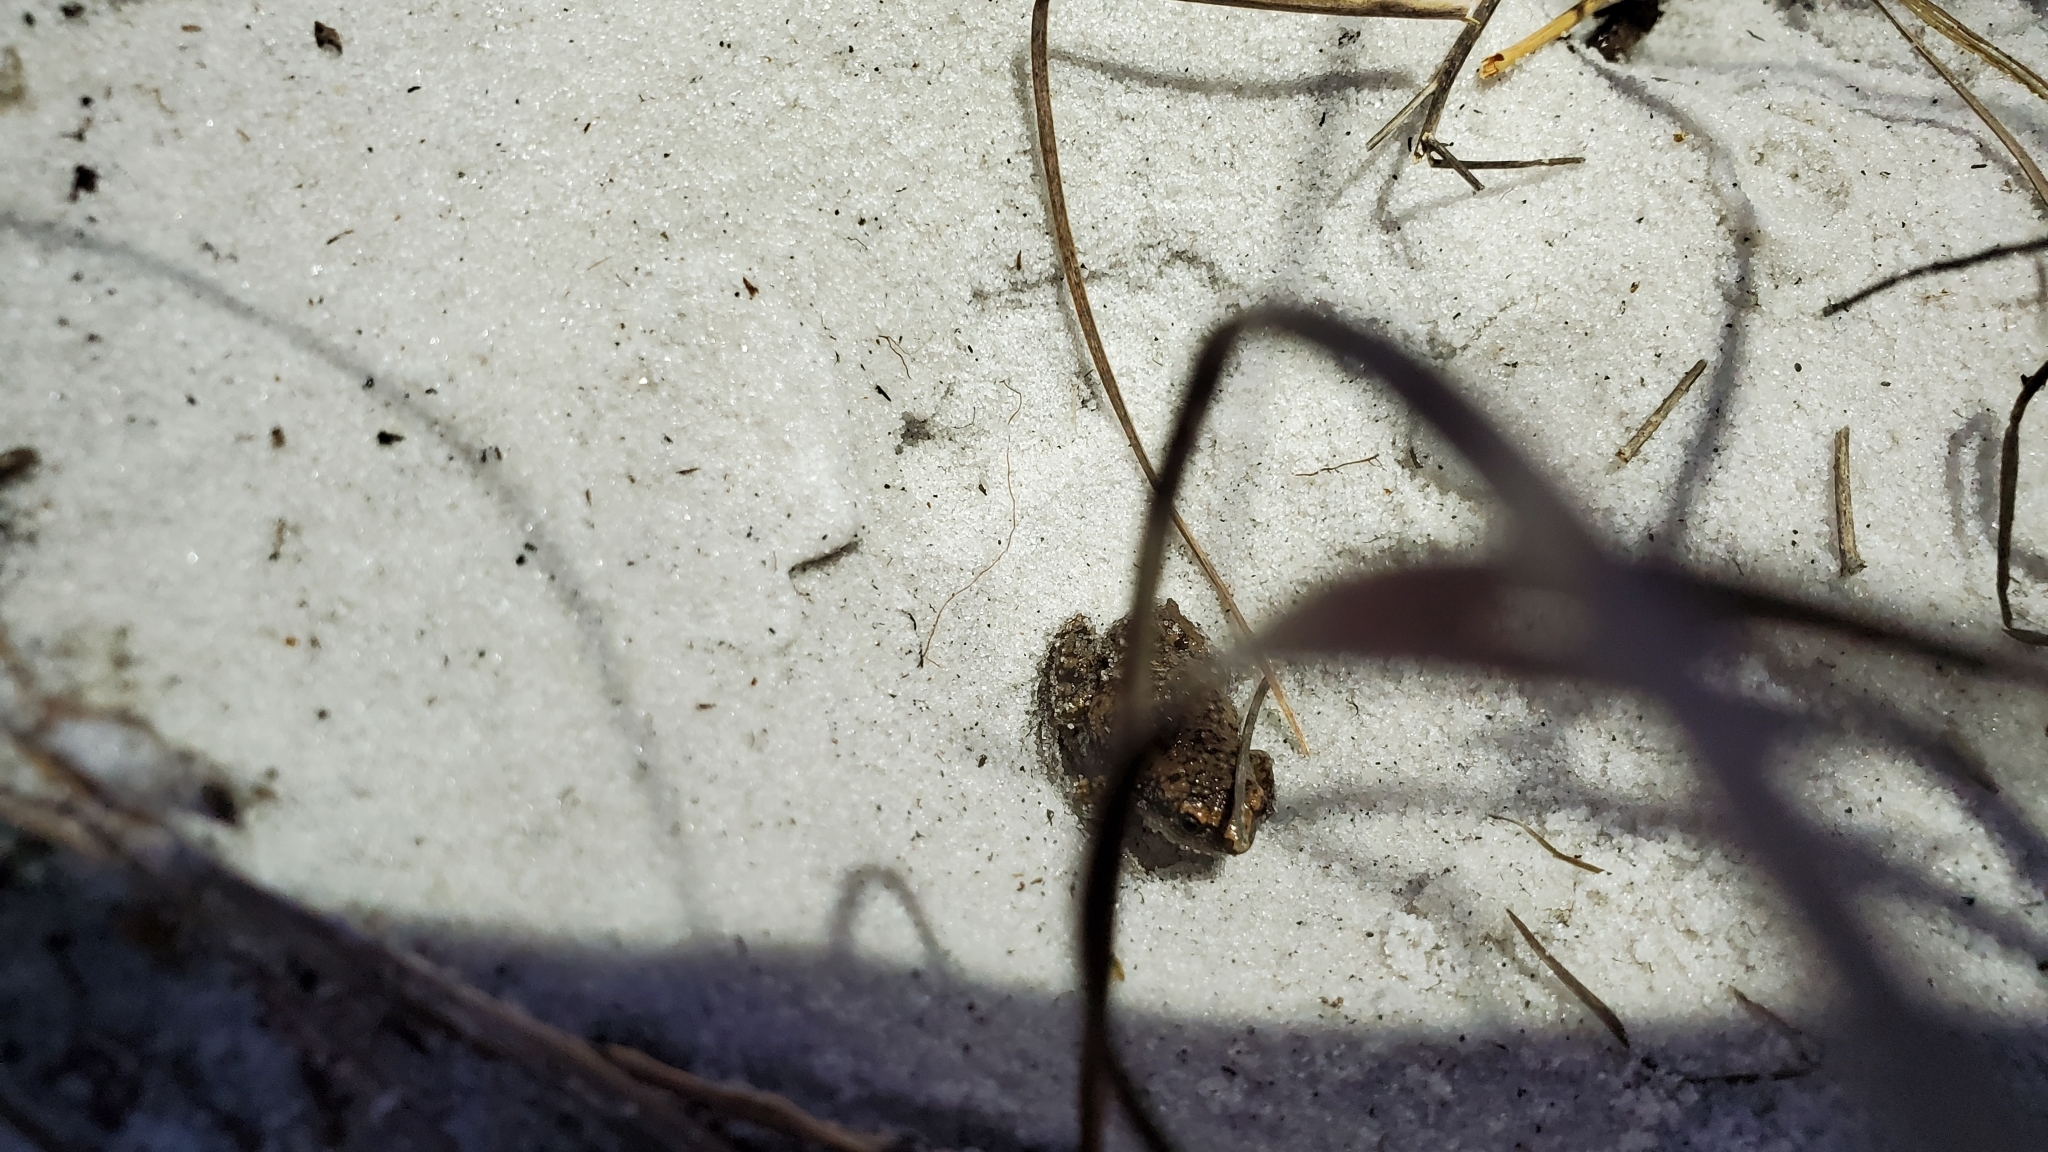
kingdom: Animalia
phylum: Chordata
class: Amphibia
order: Anura
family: Microhylidae
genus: Gastrophryne
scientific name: Gastrophryne carolinensis
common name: Eastern narrowmouth toad
